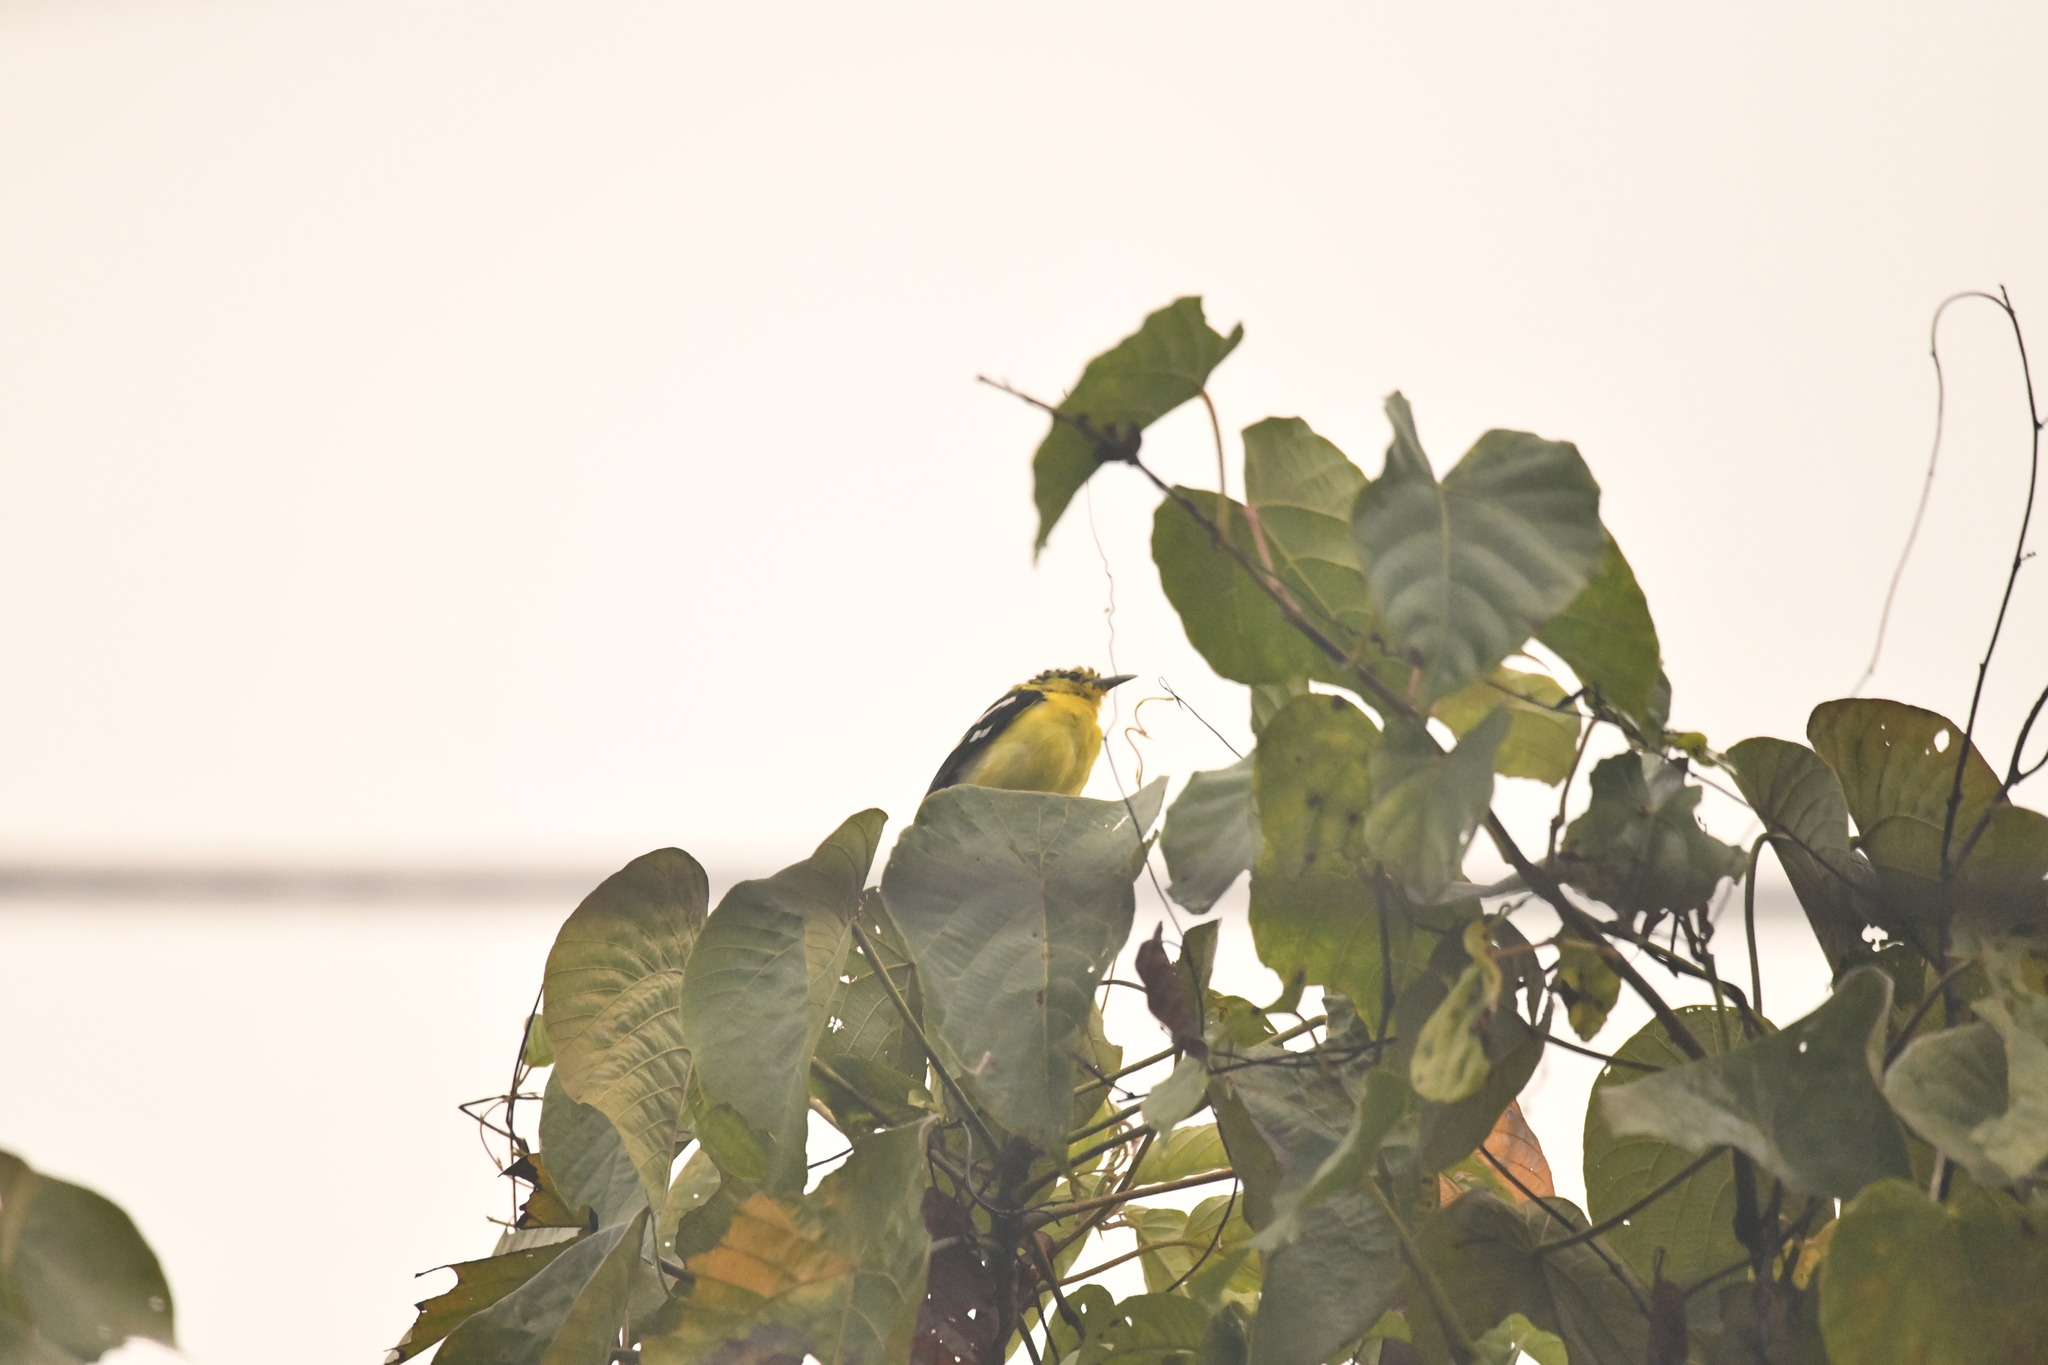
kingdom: Animalia
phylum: Chordata
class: Aves
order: Passeriformes
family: Aegithinidae
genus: Aegithina
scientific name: Aegithina tiphia
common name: Common iora
